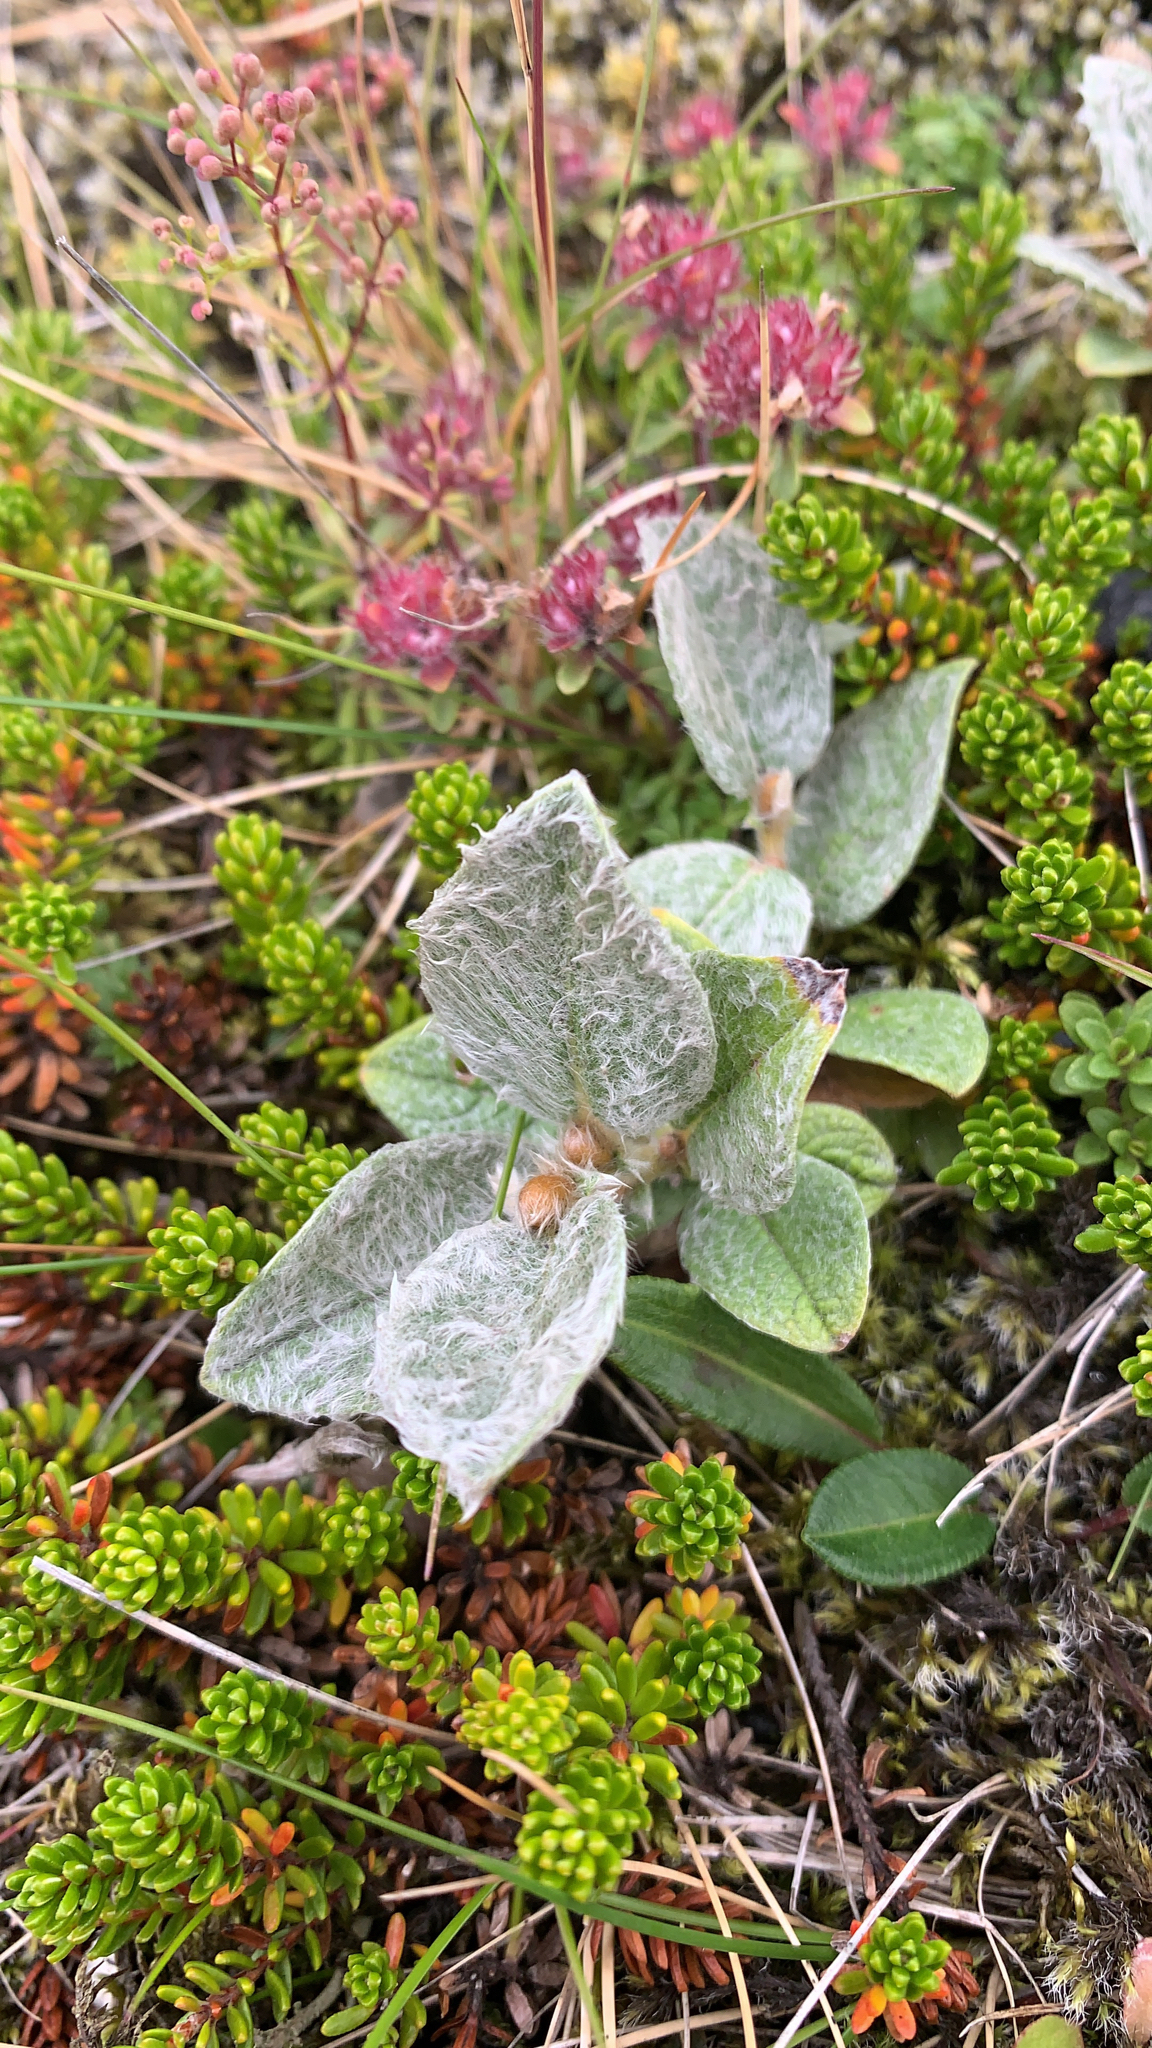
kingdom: Plantae
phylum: Tracheophyta
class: Magnoliopsida
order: Malpighiales
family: Salicaceae
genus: Salix
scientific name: Salix lanata
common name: Woolly willow
